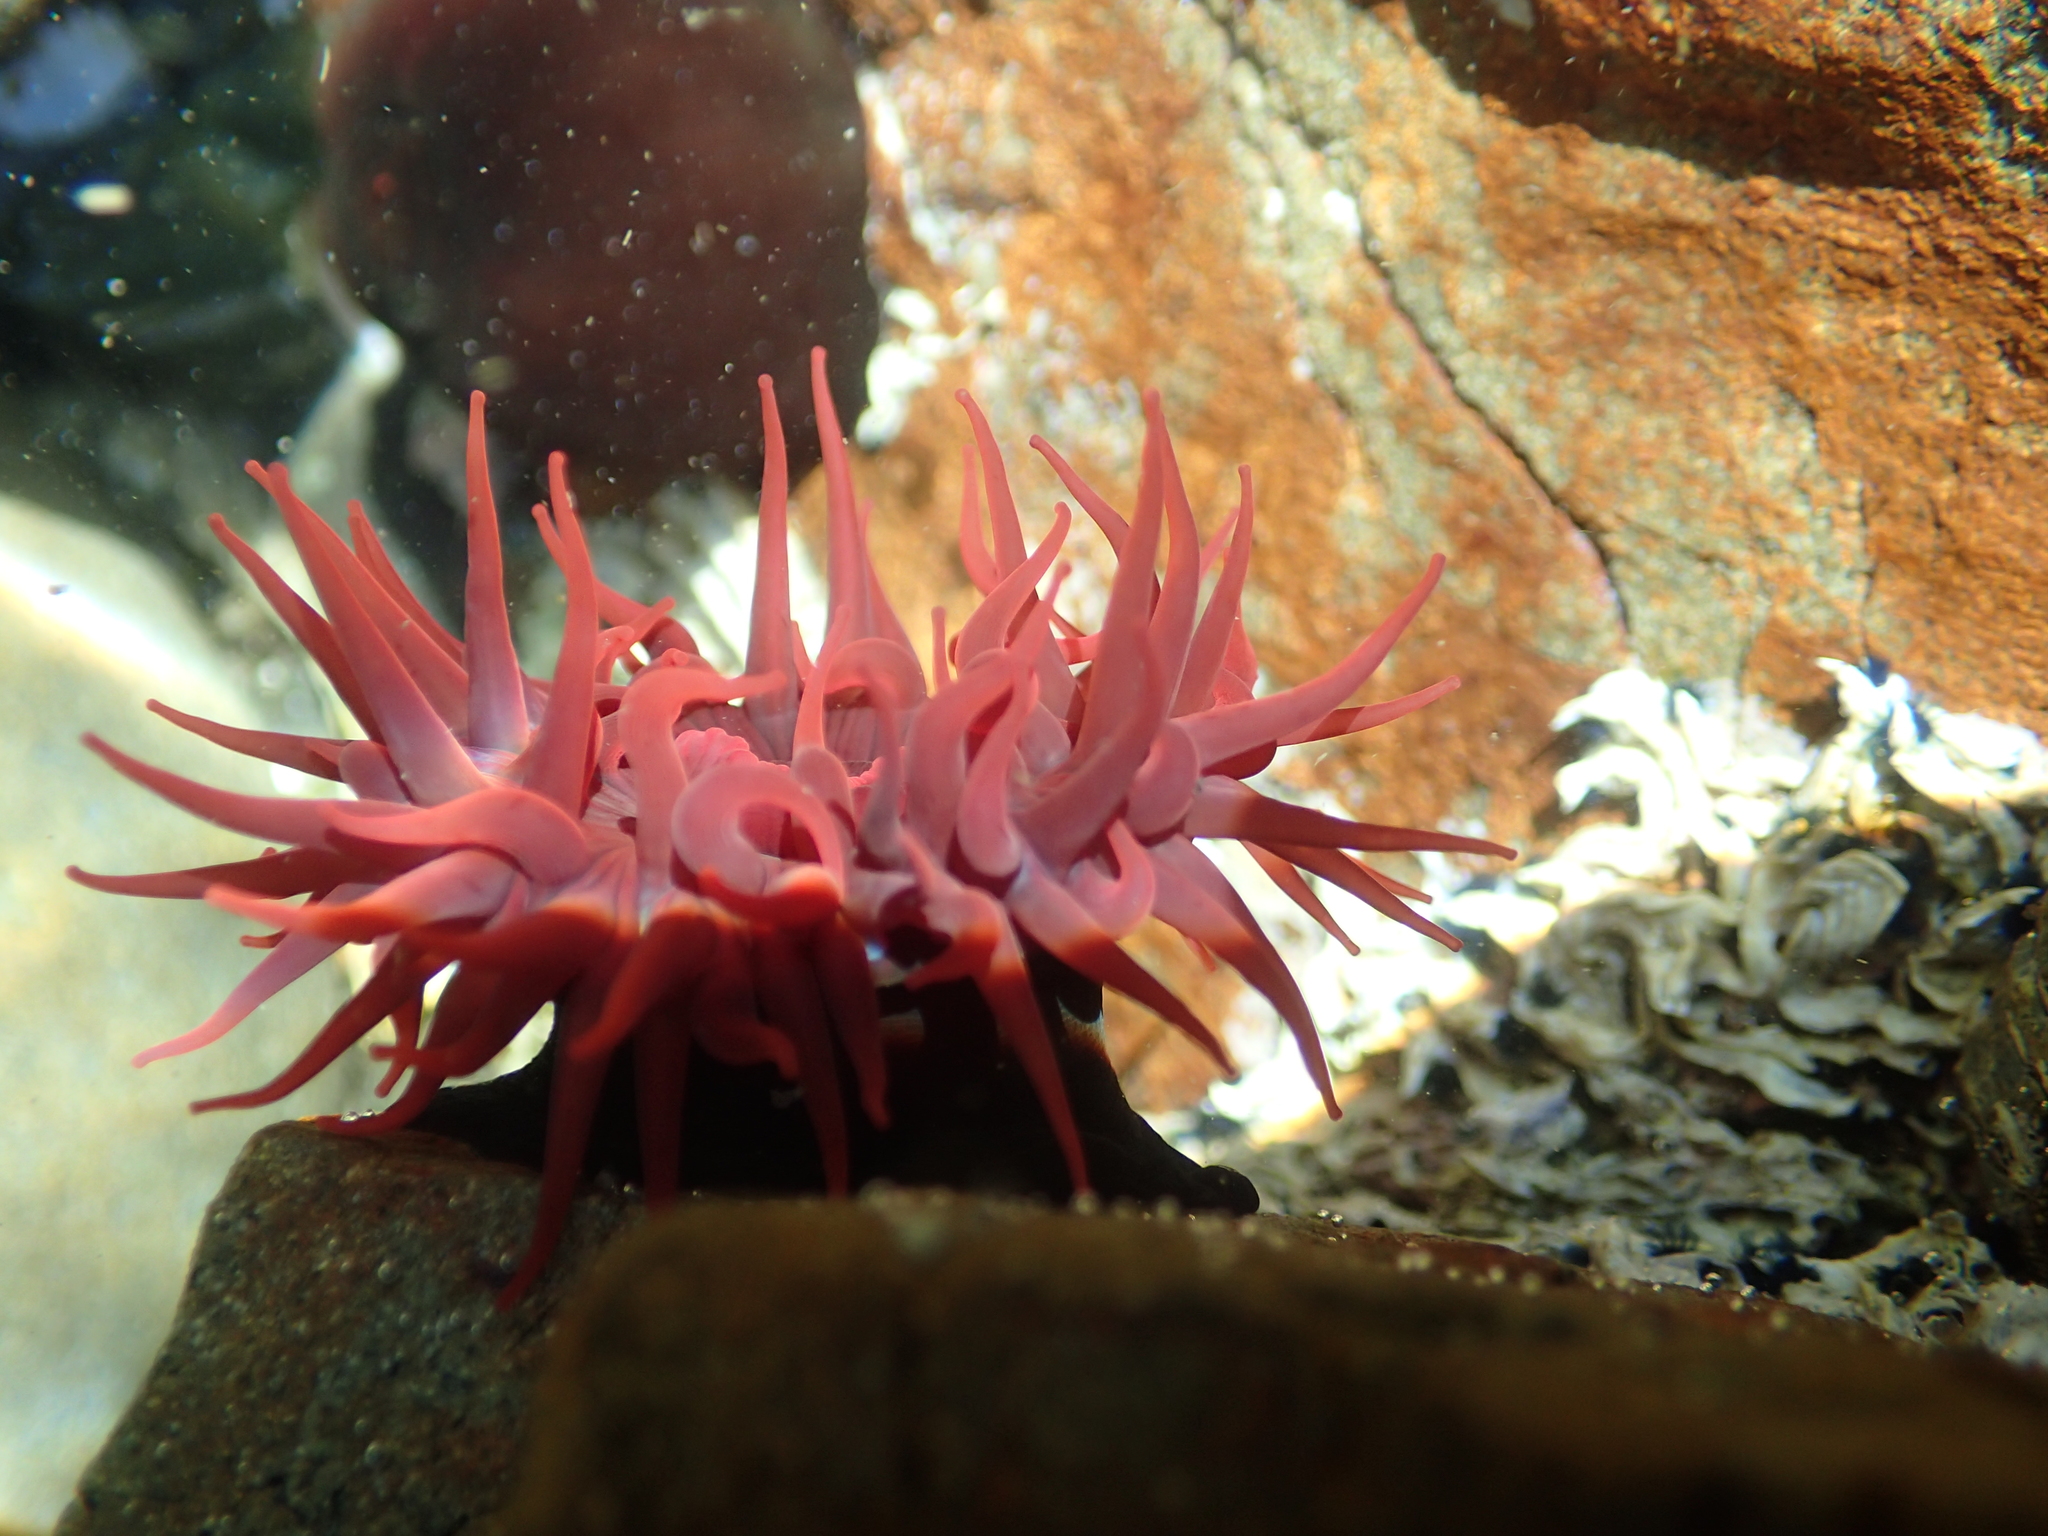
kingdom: Animalia
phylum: Cnidaria
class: Anthozoa
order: Actiniaria
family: Actiniidae
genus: Actinia
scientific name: Actinia tenebrosa
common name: Waratah anemone
